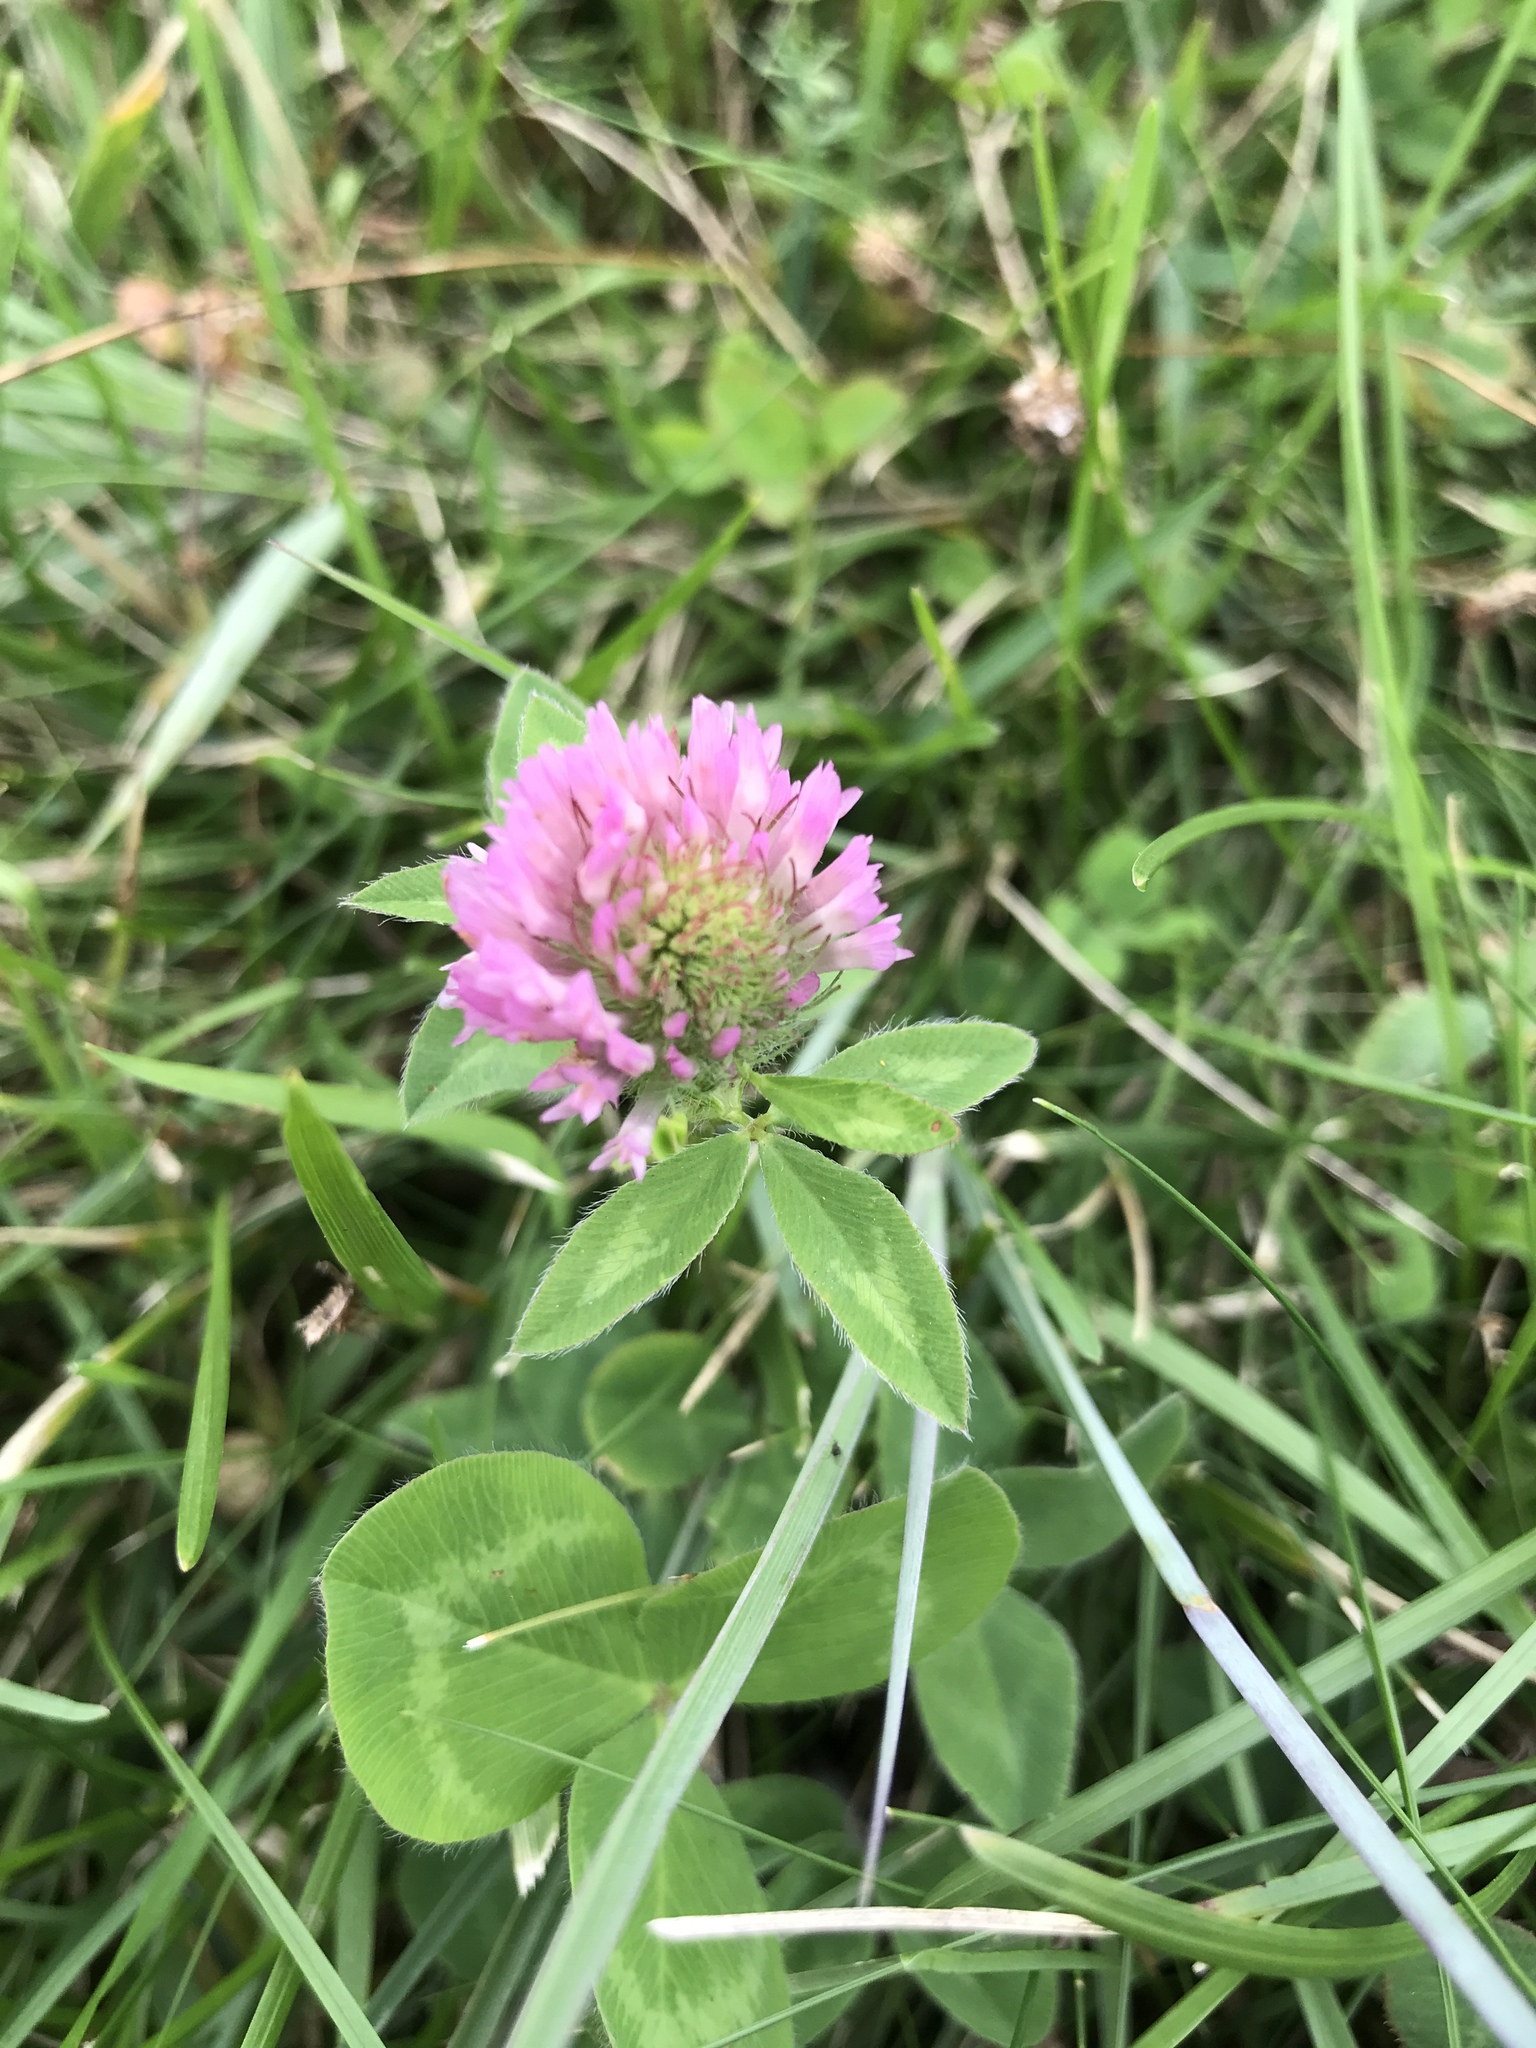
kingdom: Plantae
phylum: Tracheophyta
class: Magnoliopsida
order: Fabales
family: Fabaceae
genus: Trifolium
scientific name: Trifolium pratense
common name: Red clover
